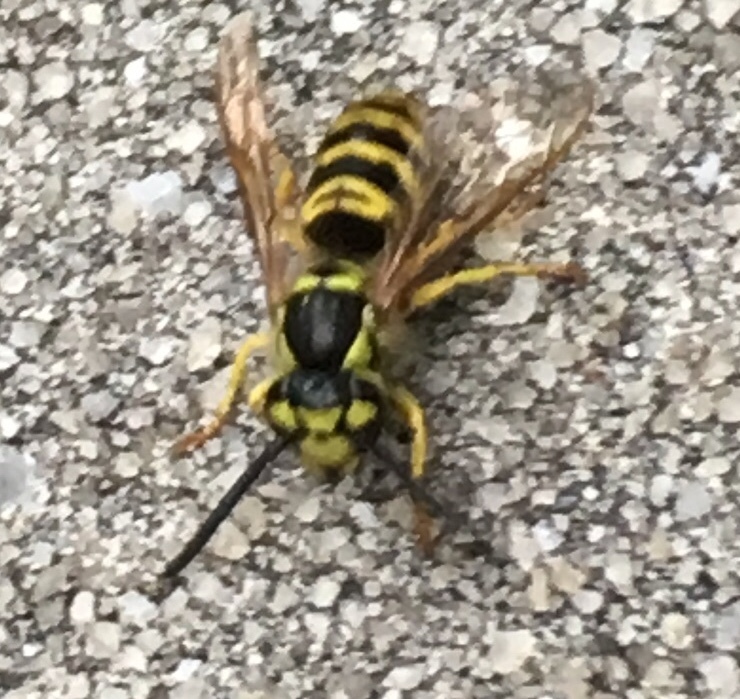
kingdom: Animalia
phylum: Arthropoda
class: Insecta
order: Hymenoptera
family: Vespidae
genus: Vespula
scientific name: Vespula maculifrons
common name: Eastern yellowjacket
